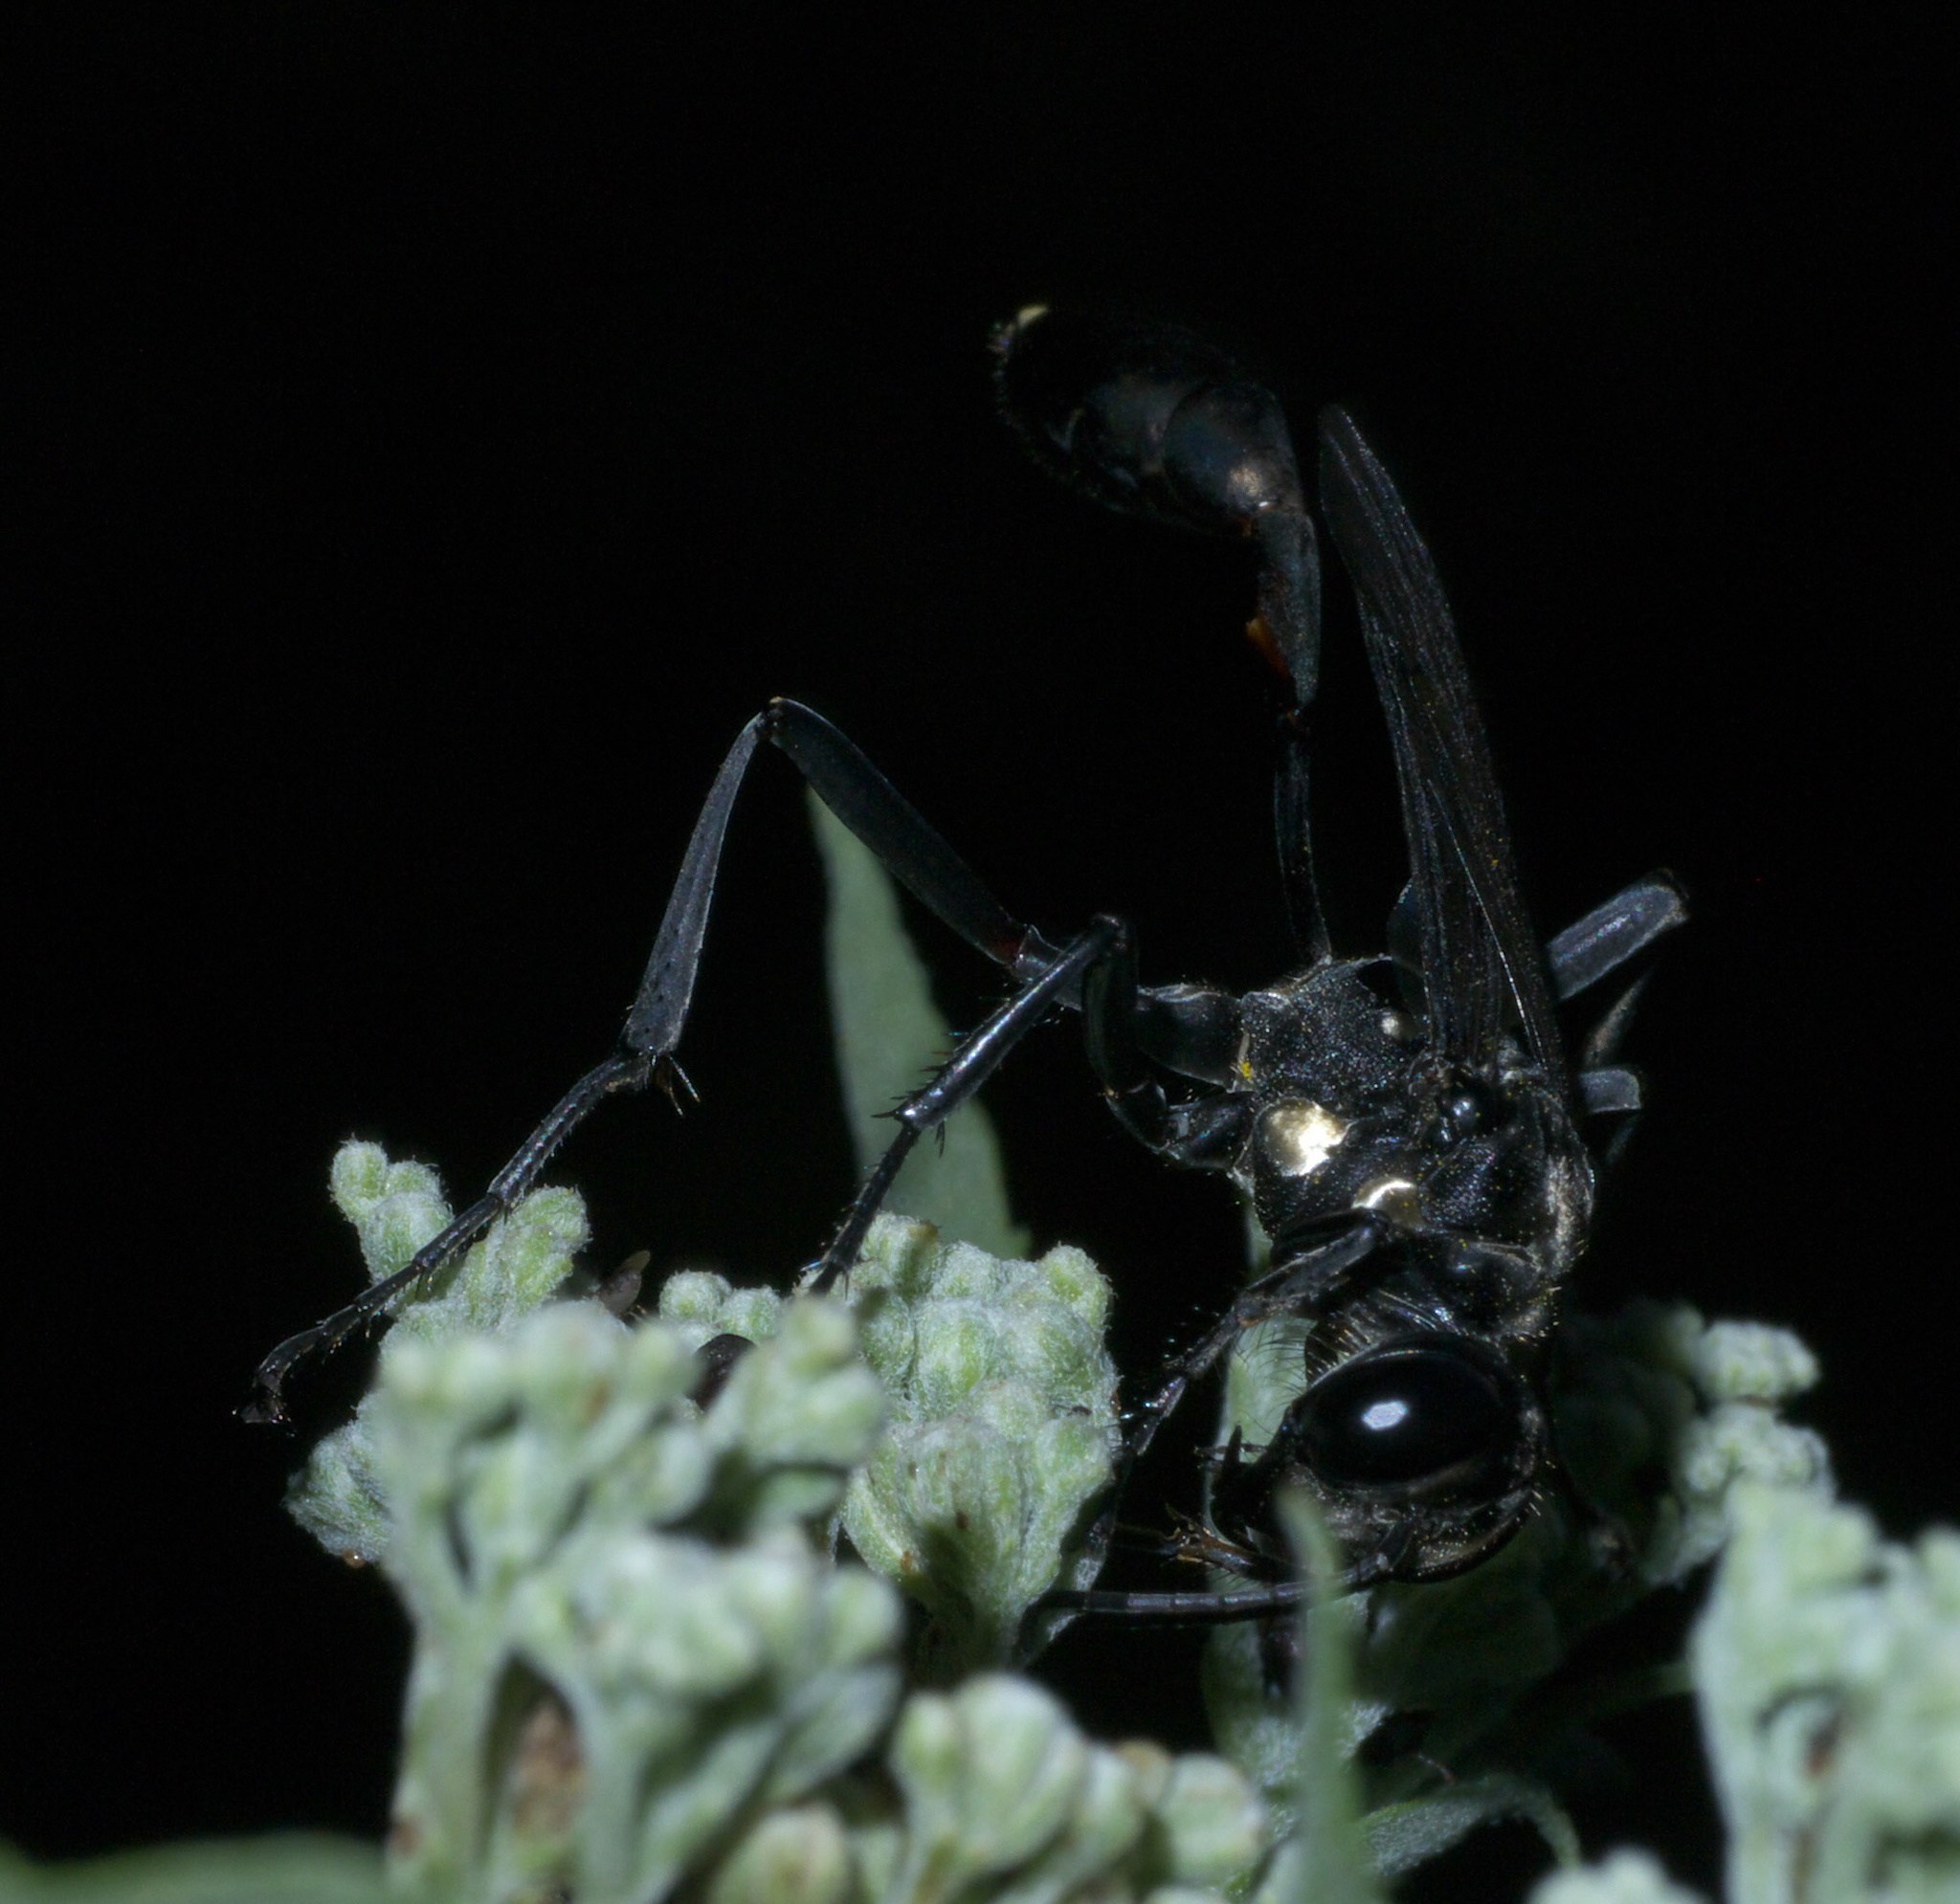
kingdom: Animalia
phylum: Arthropoda
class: Insecta
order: Hymenoptera
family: Sphecidae
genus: Eremnophila
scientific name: Eremnophila aureonotata
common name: Gold-marked thread-waisted wasp
